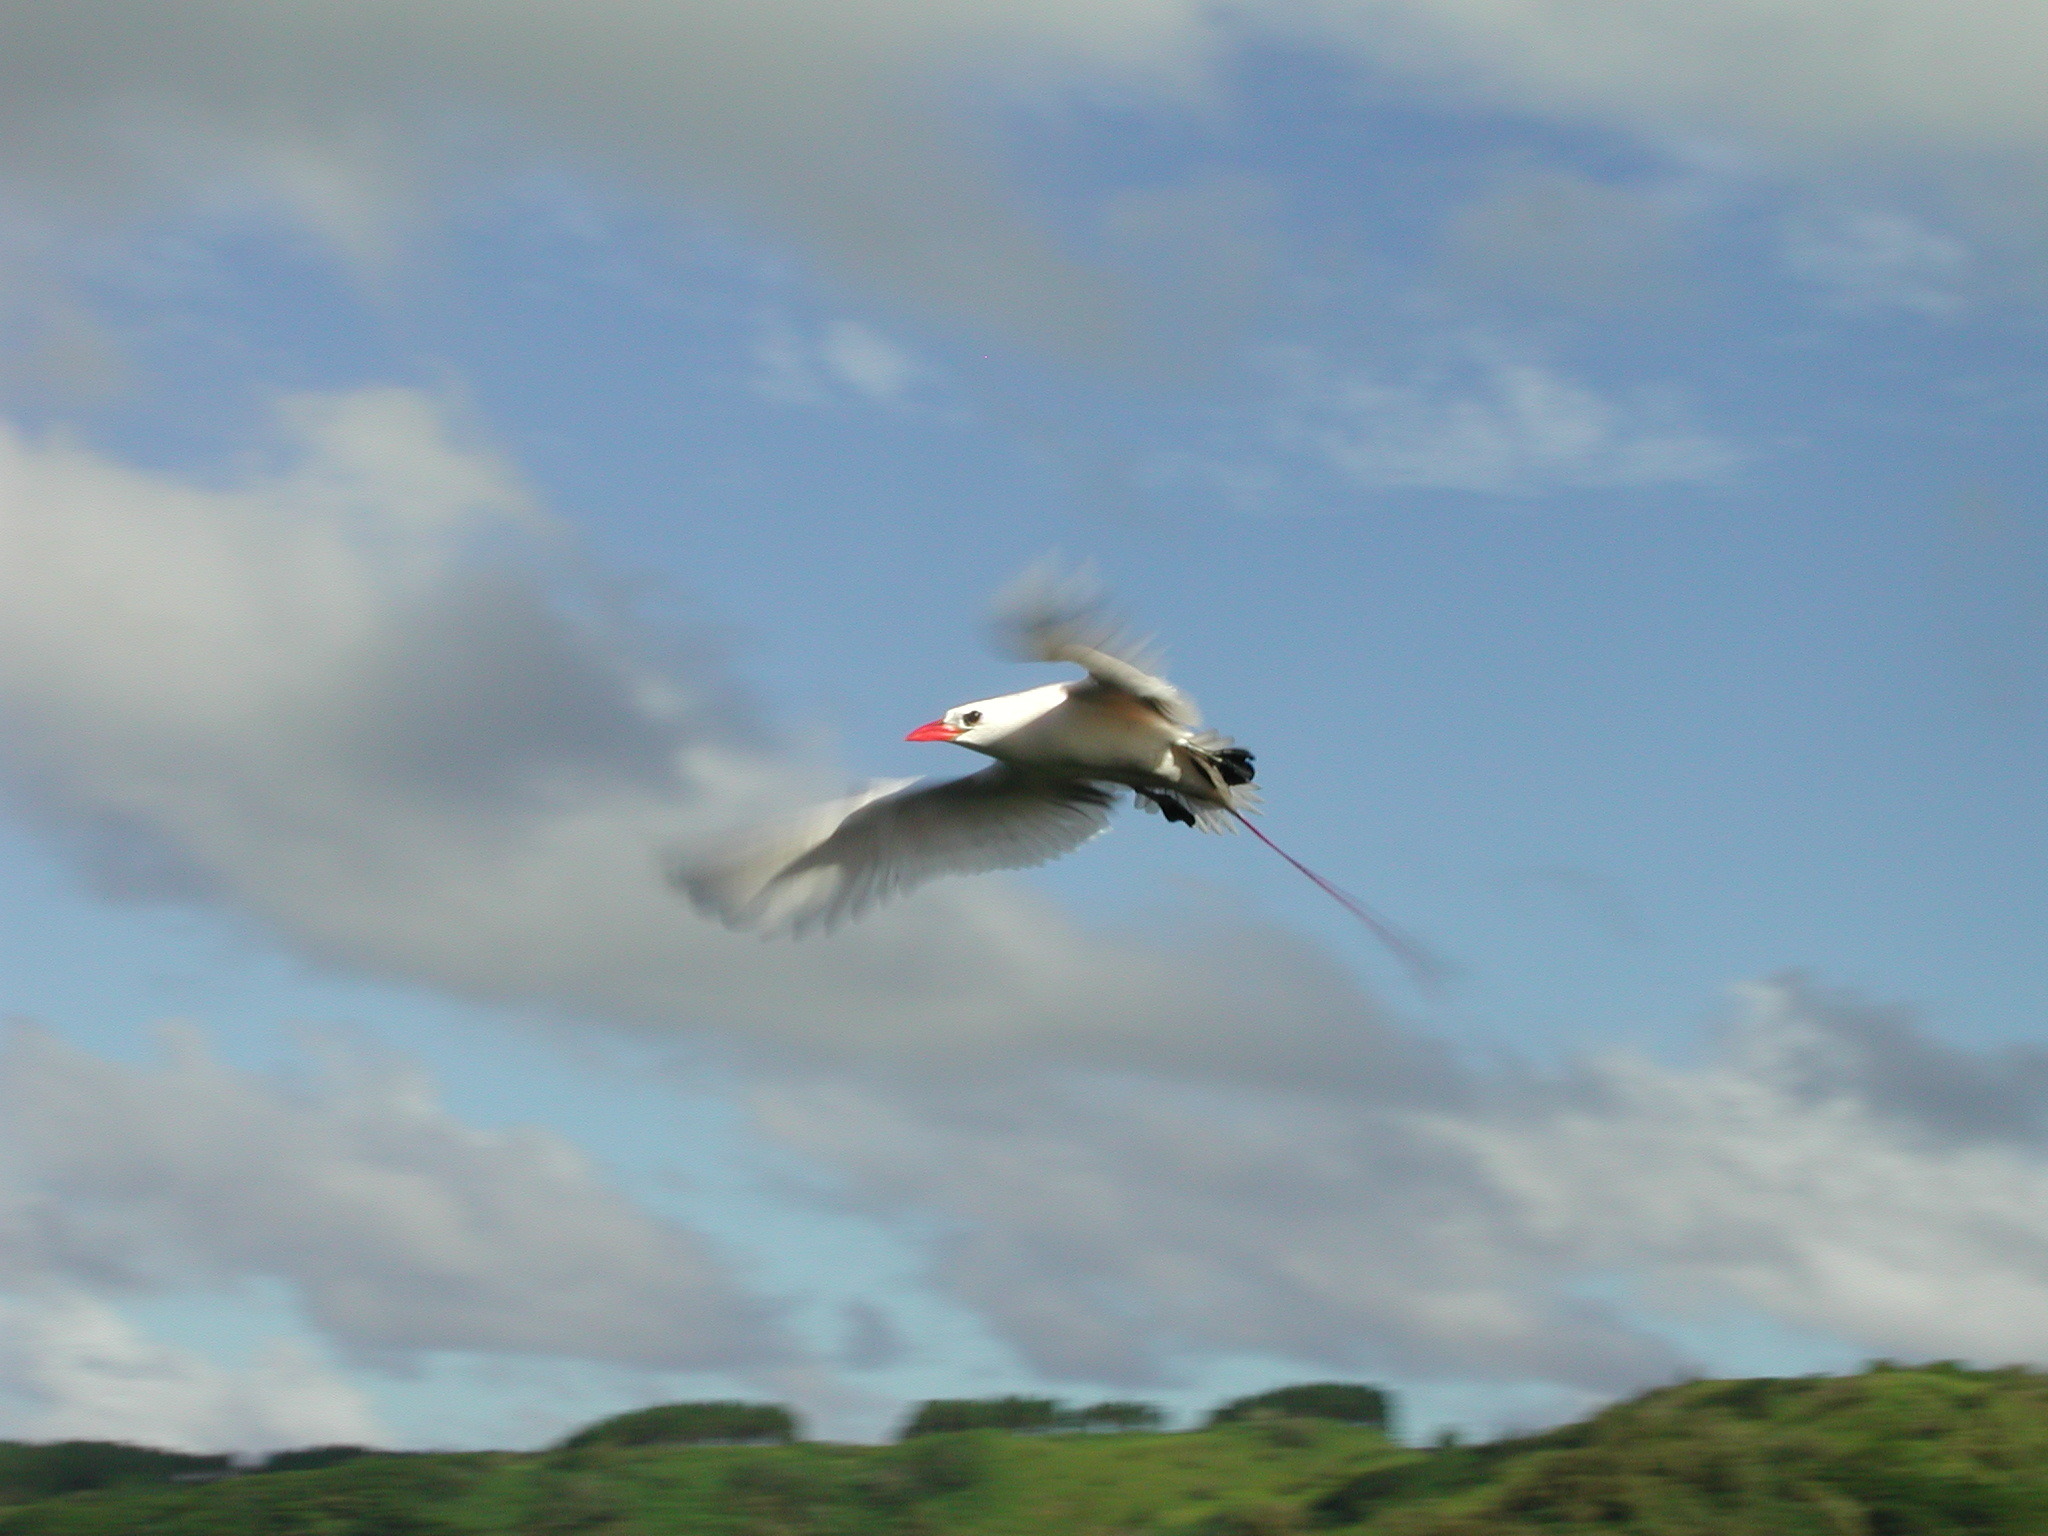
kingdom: Animalia
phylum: Chordata
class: Aves
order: Phaethontiformes
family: Phaethontidae
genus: Phaethon
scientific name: Phaethon rubricauda
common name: Red-tailed tropicbird
